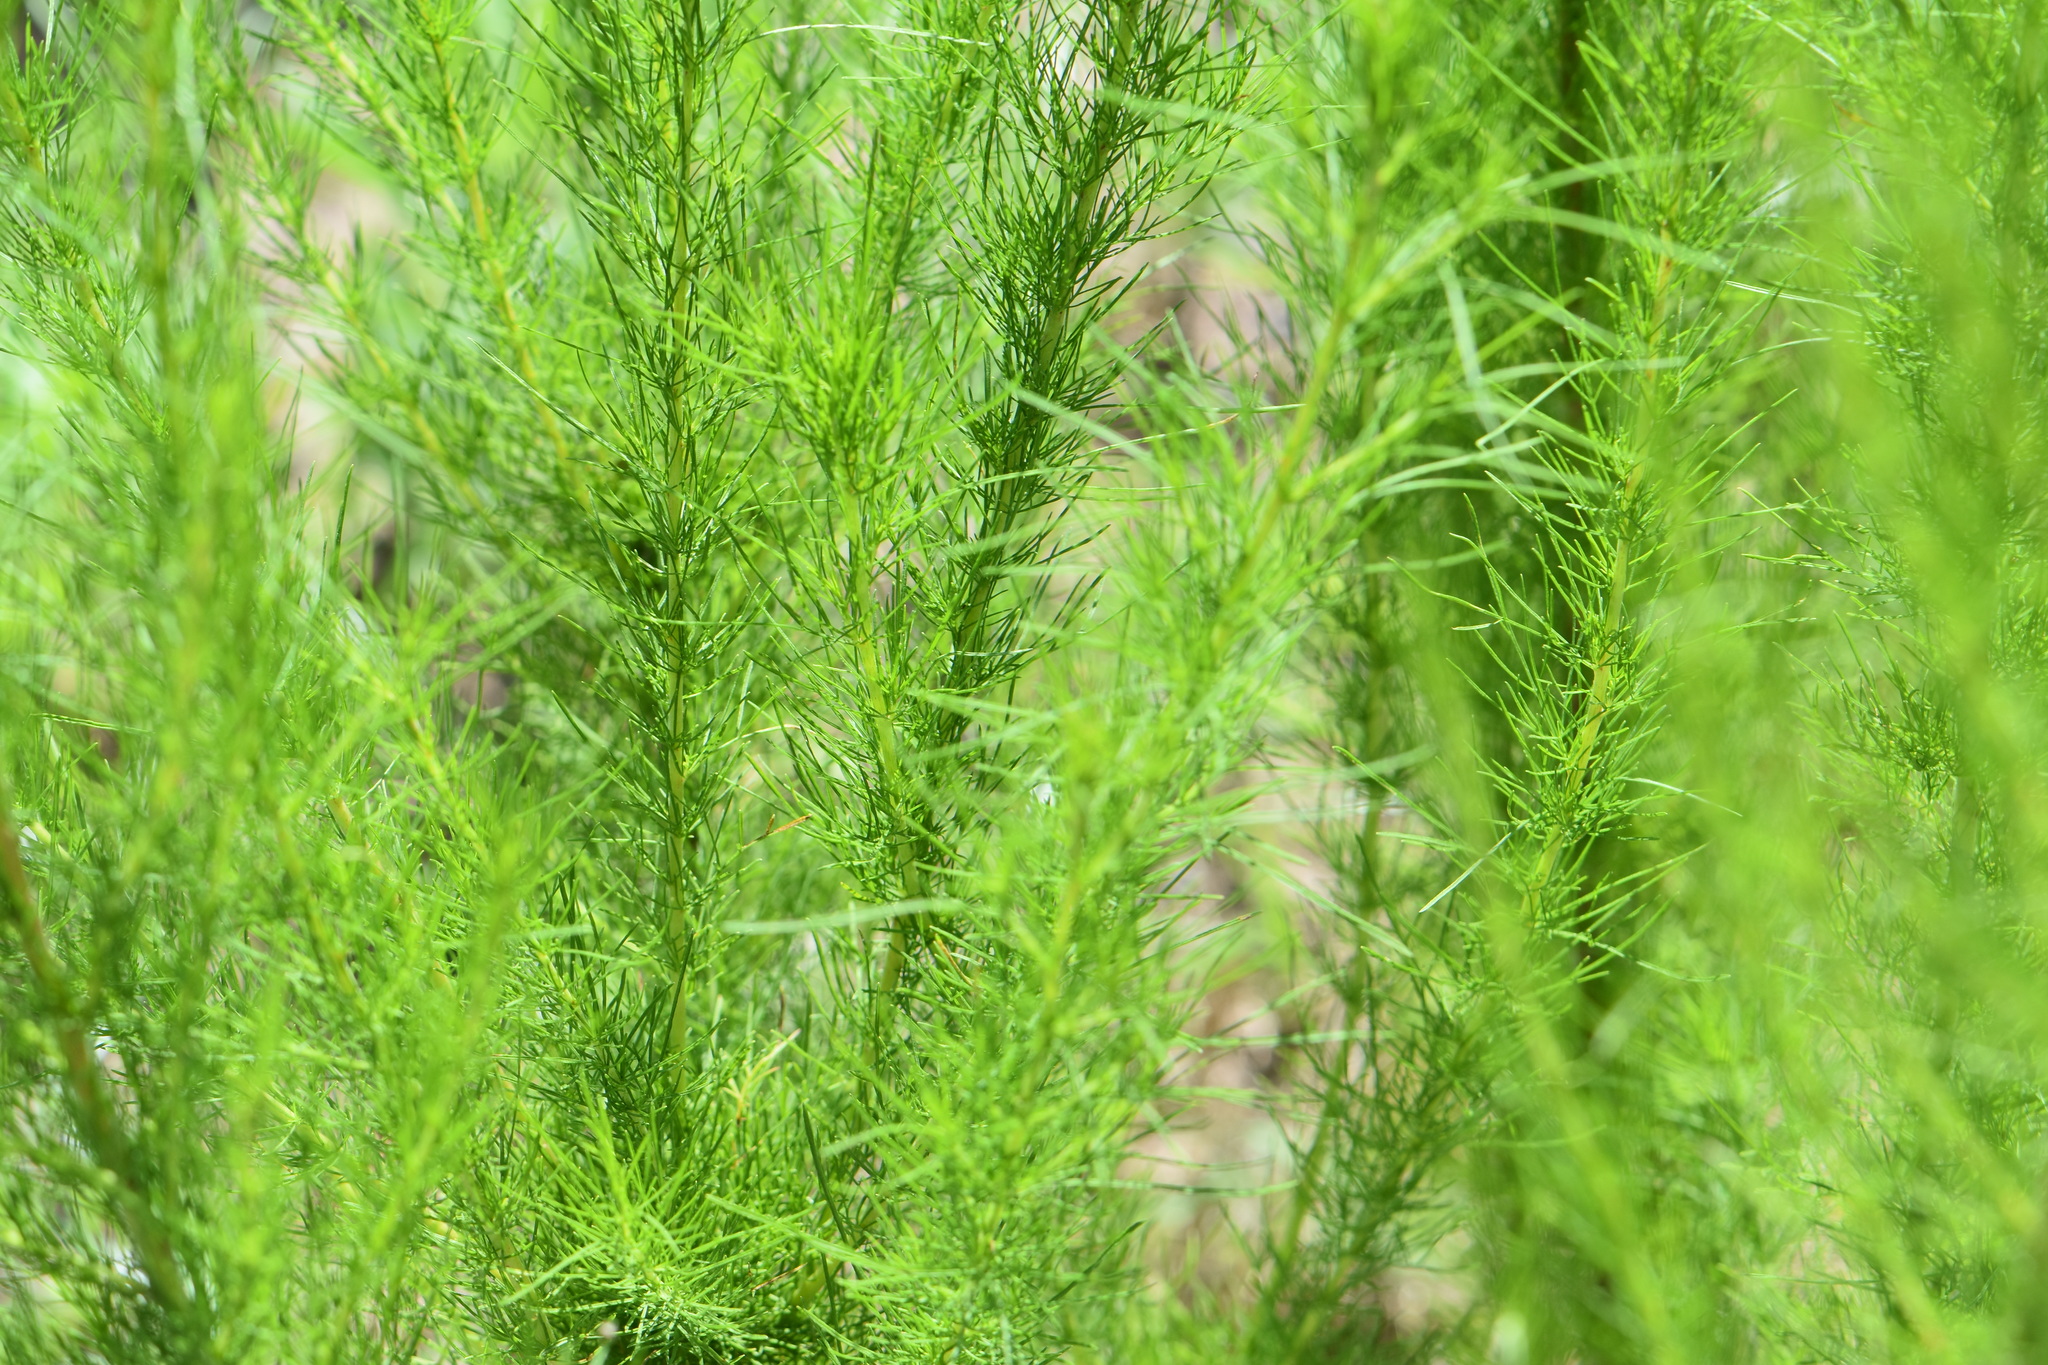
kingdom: Plantae
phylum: Tracheophyta
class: Magnoliopsida
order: Asterales
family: Asteraceae
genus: Eupatorium
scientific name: Eupatorium capillifolium
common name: Dog-fennel
